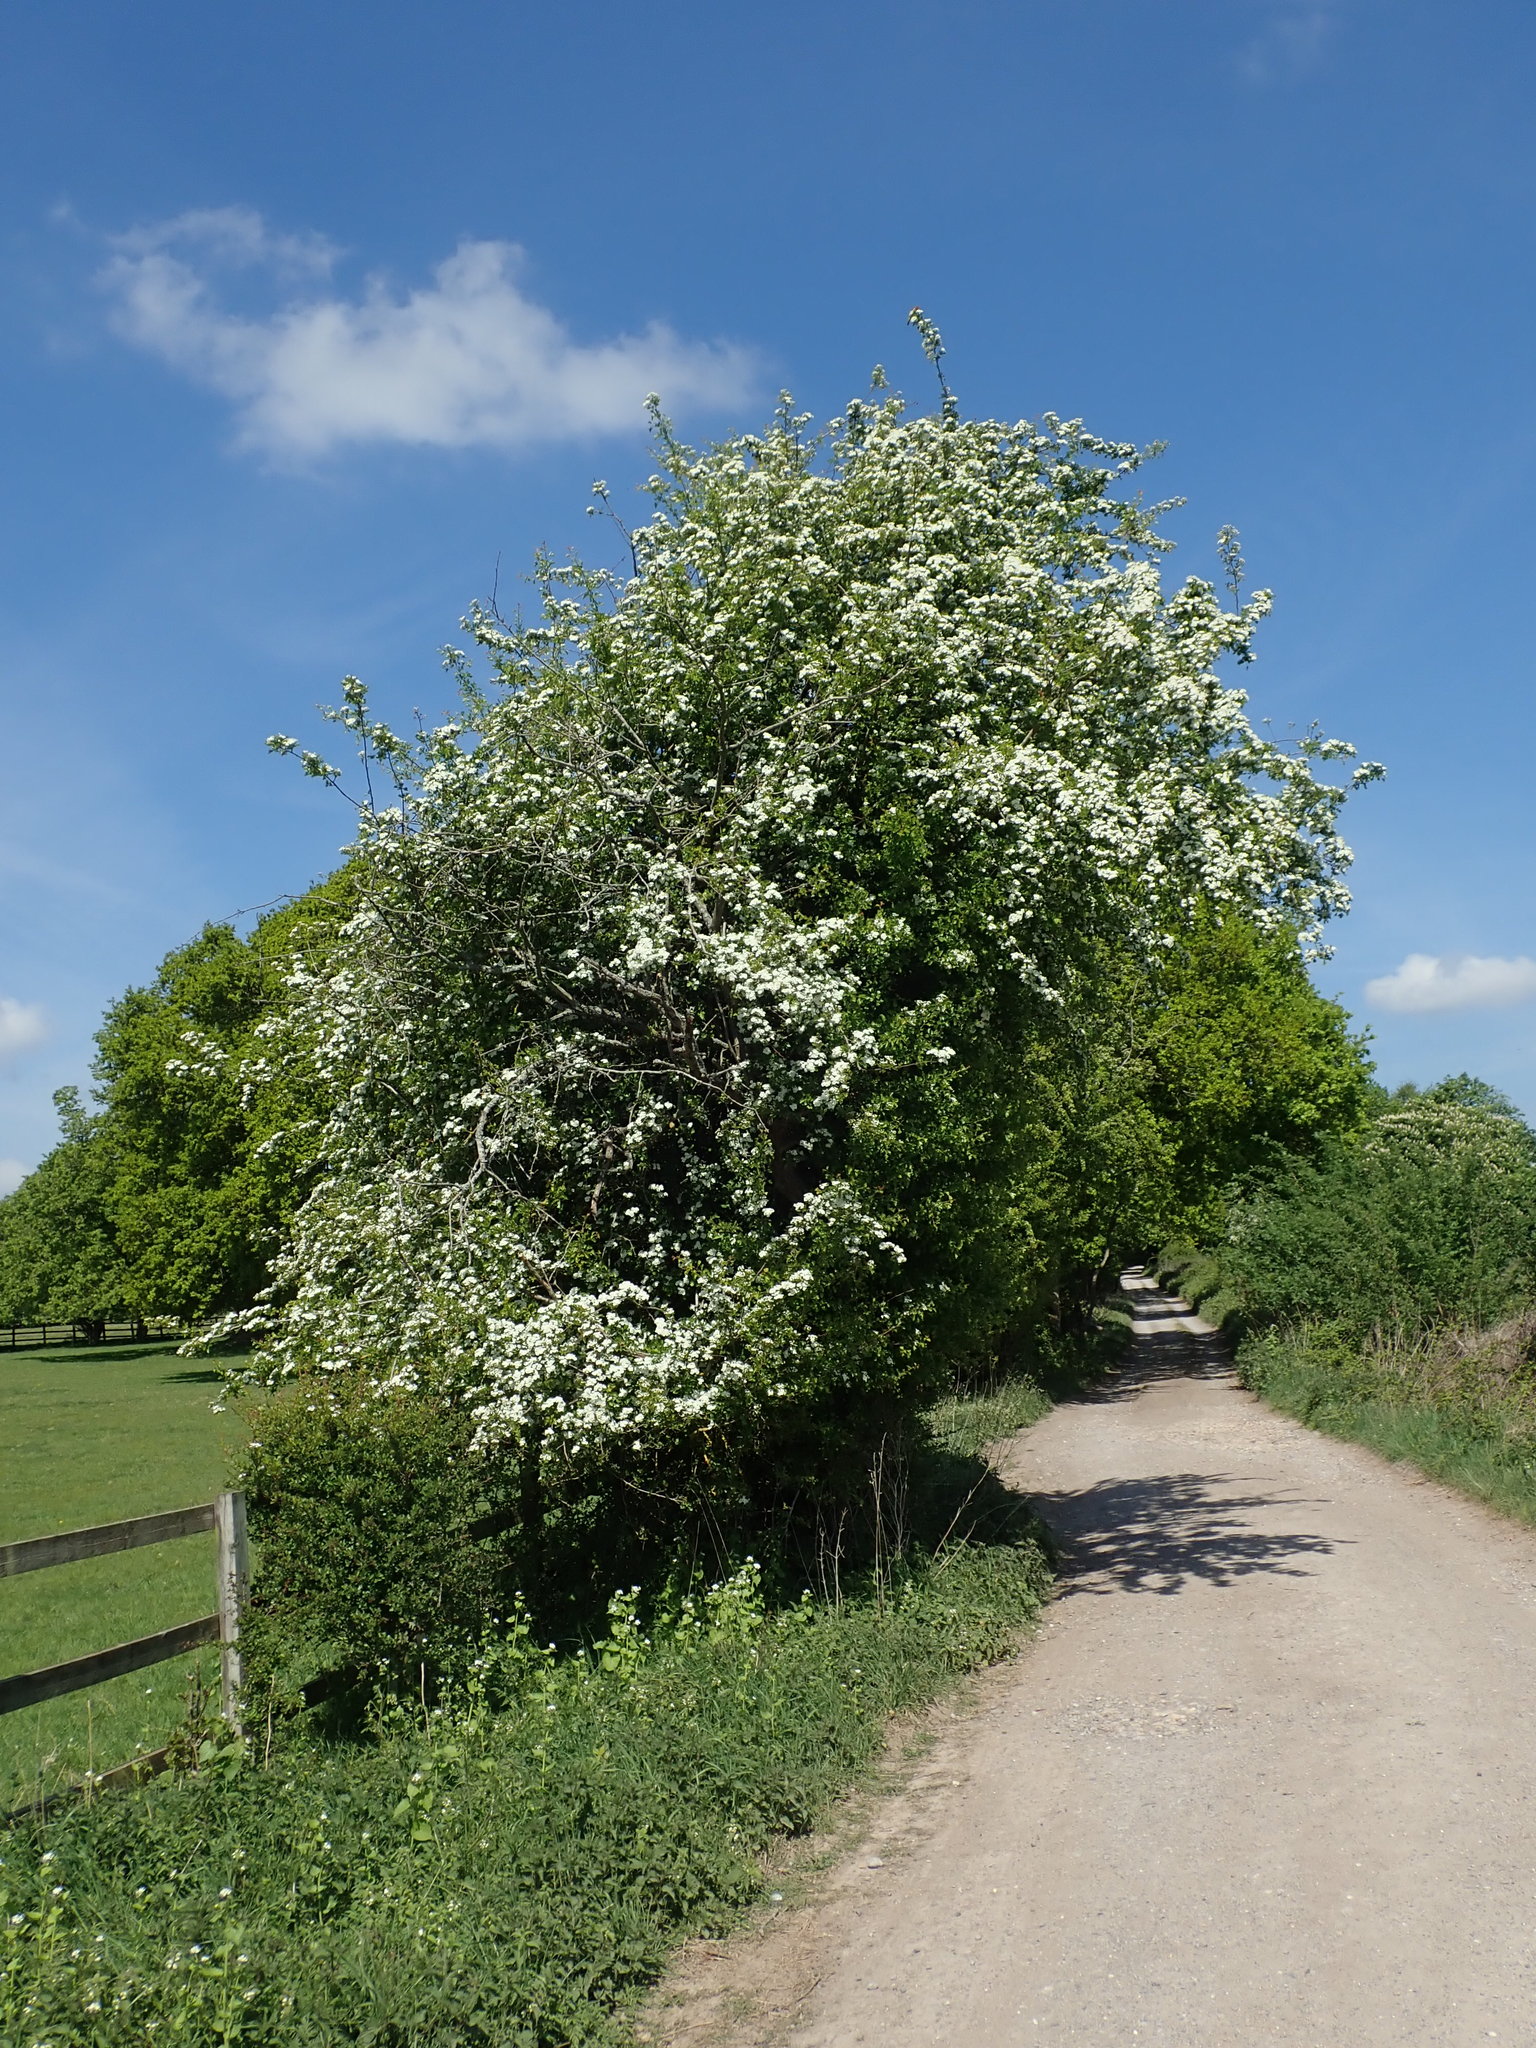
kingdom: Plantae
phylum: Tracheophyta
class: Magnoliopsida
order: Rosales
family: Rosaceae
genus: Crataegus
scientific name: Crataegus monogyna
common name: Hawthorn
